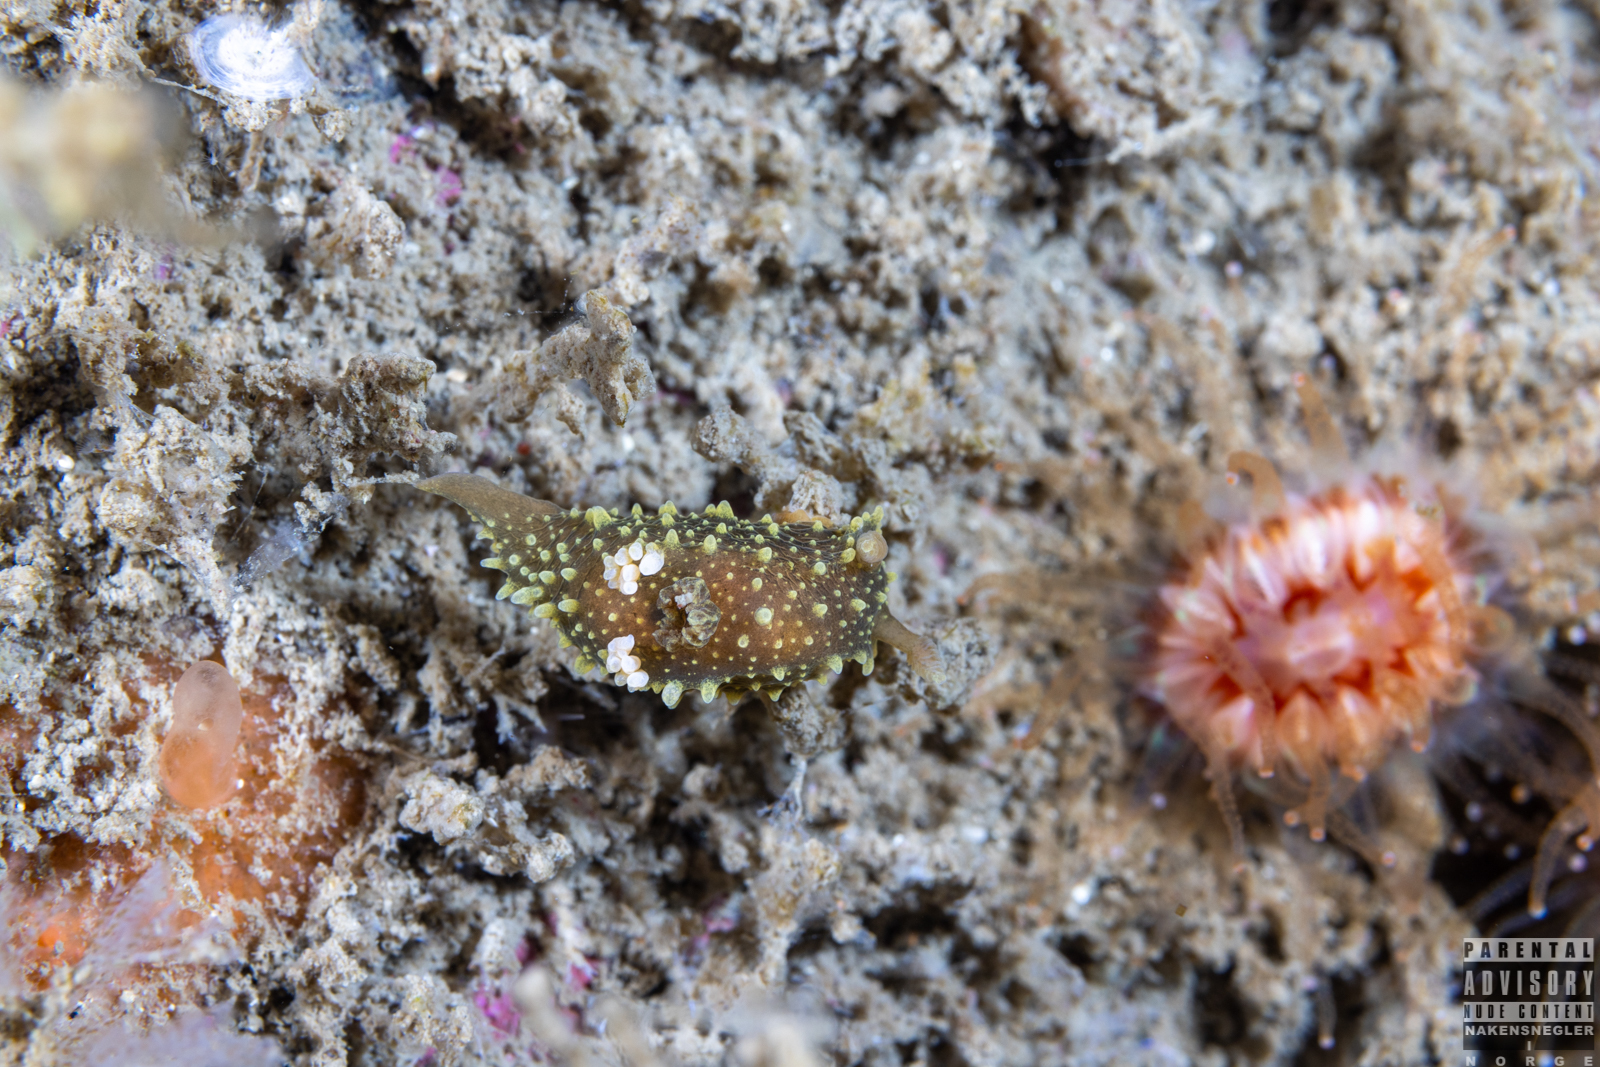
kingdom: Animalia
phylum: Mollusca
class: Gastropoda
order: Nudibranchia
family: Polyceridae
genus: Palio
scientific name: Palio dubia
